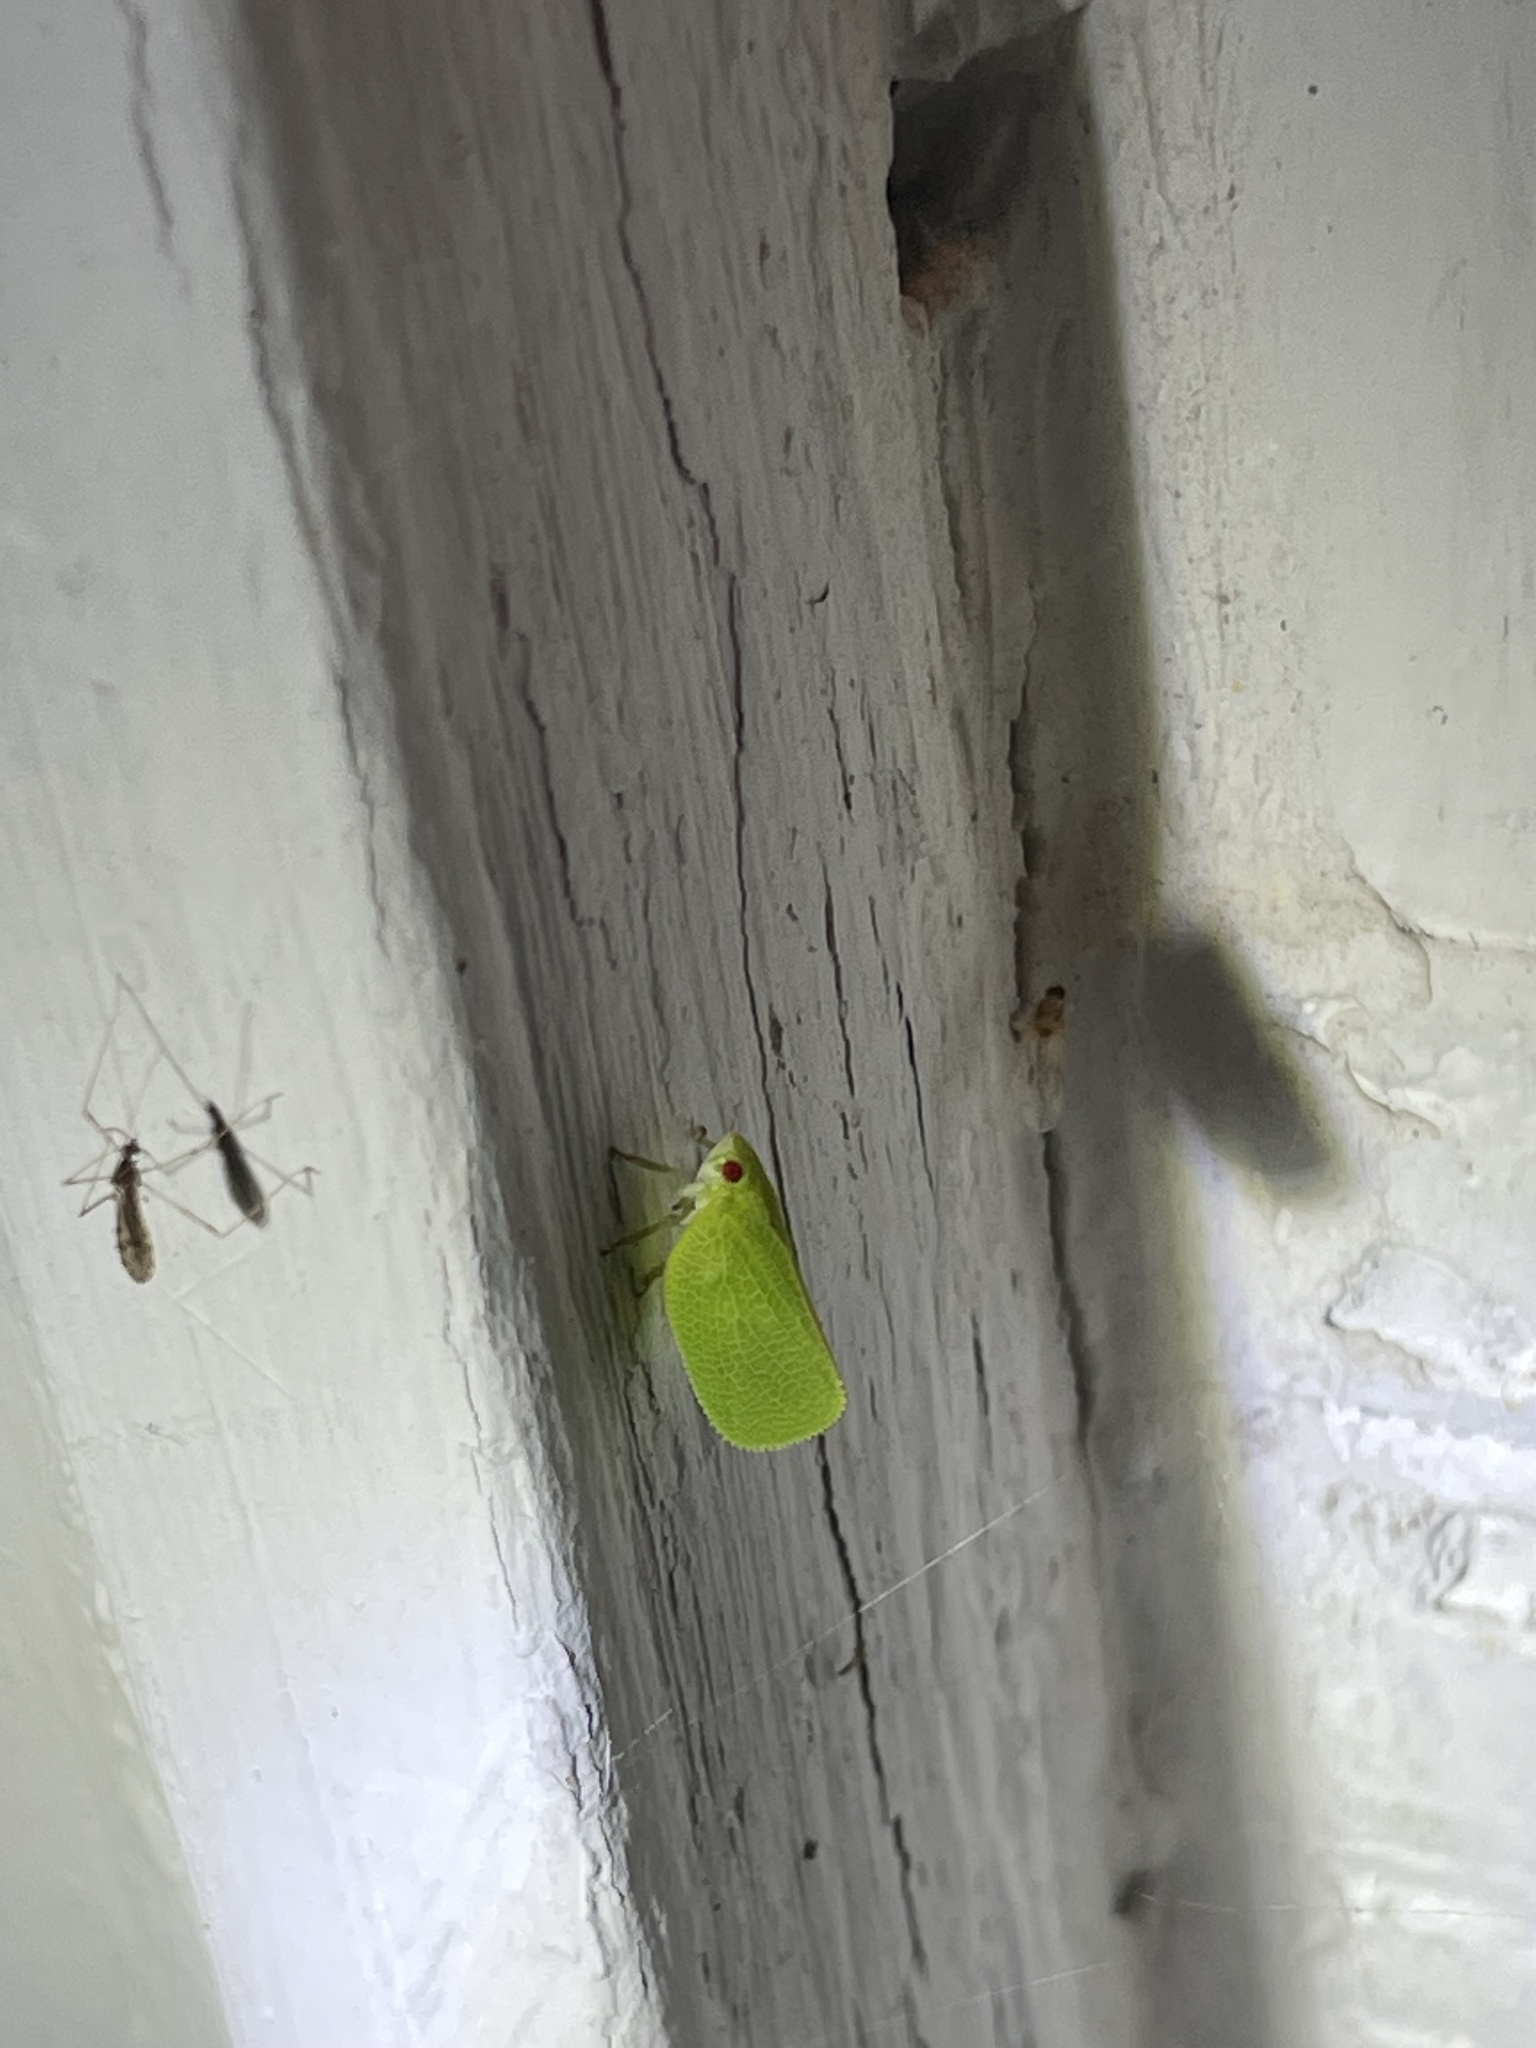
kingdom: Animalia
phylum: Arthropoda
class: Insecta
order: Hemiptera
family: Acanaloniidae
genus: Acanalonia
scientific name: Acanalonia conica
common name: Green cone-headed planthopper
